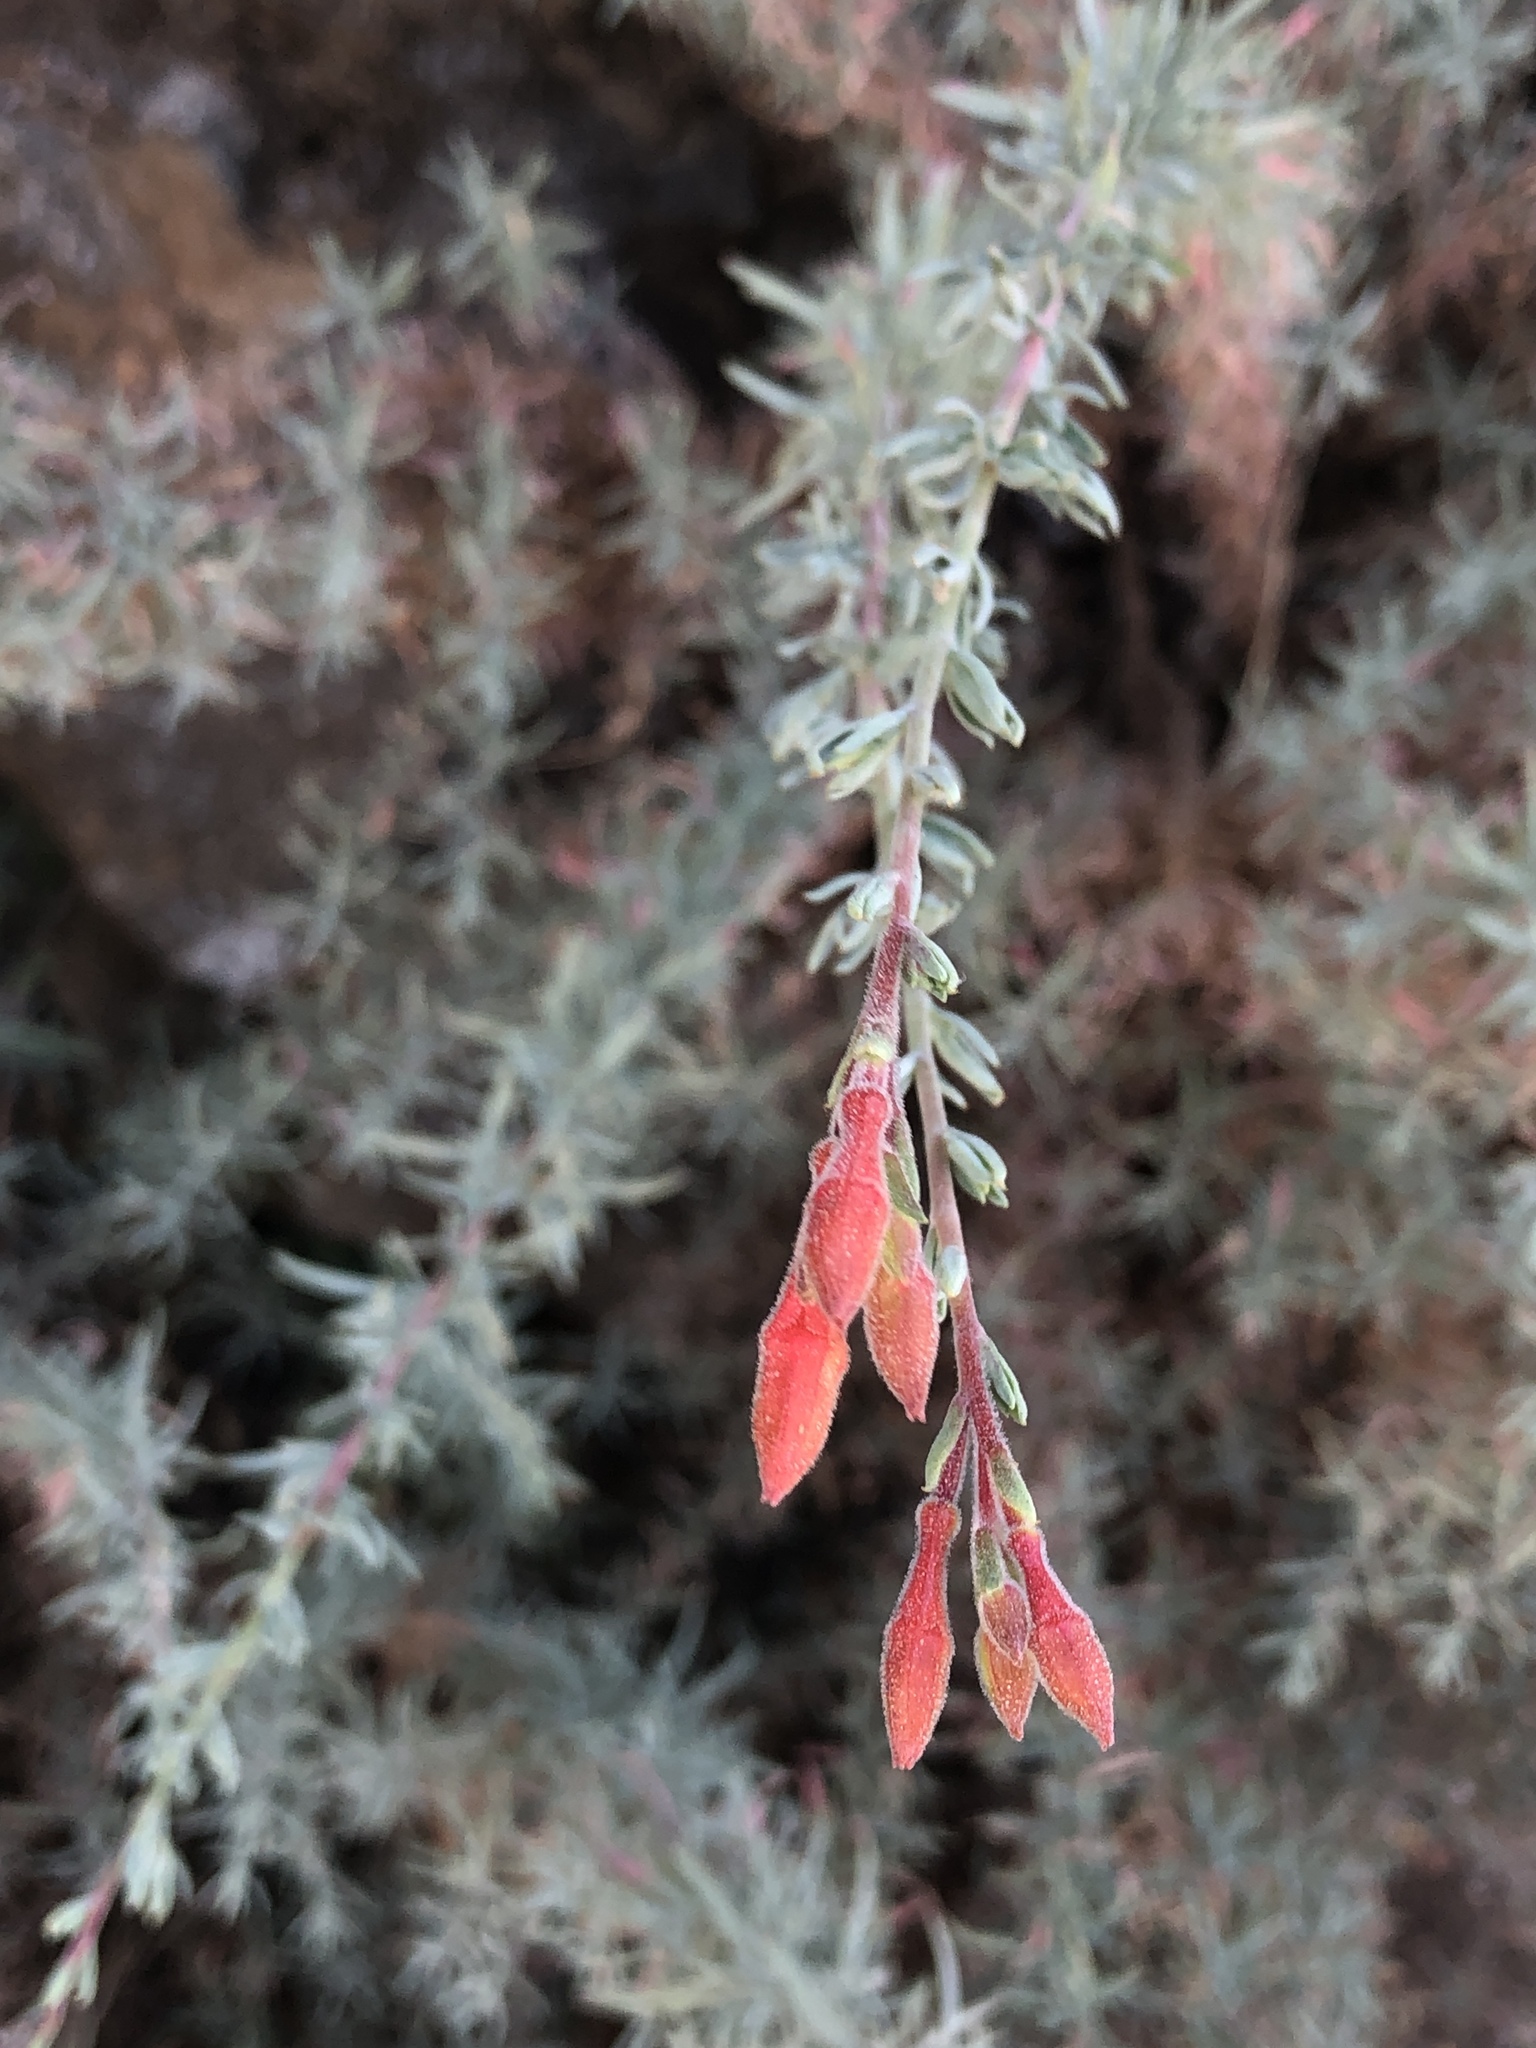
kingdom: Plantae
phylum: Tracheophyta
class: Magnoliopsida
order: Myrtales
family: Onagraceae
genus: Epilobium
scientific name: Epilobium canum
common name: California-fuchsia
